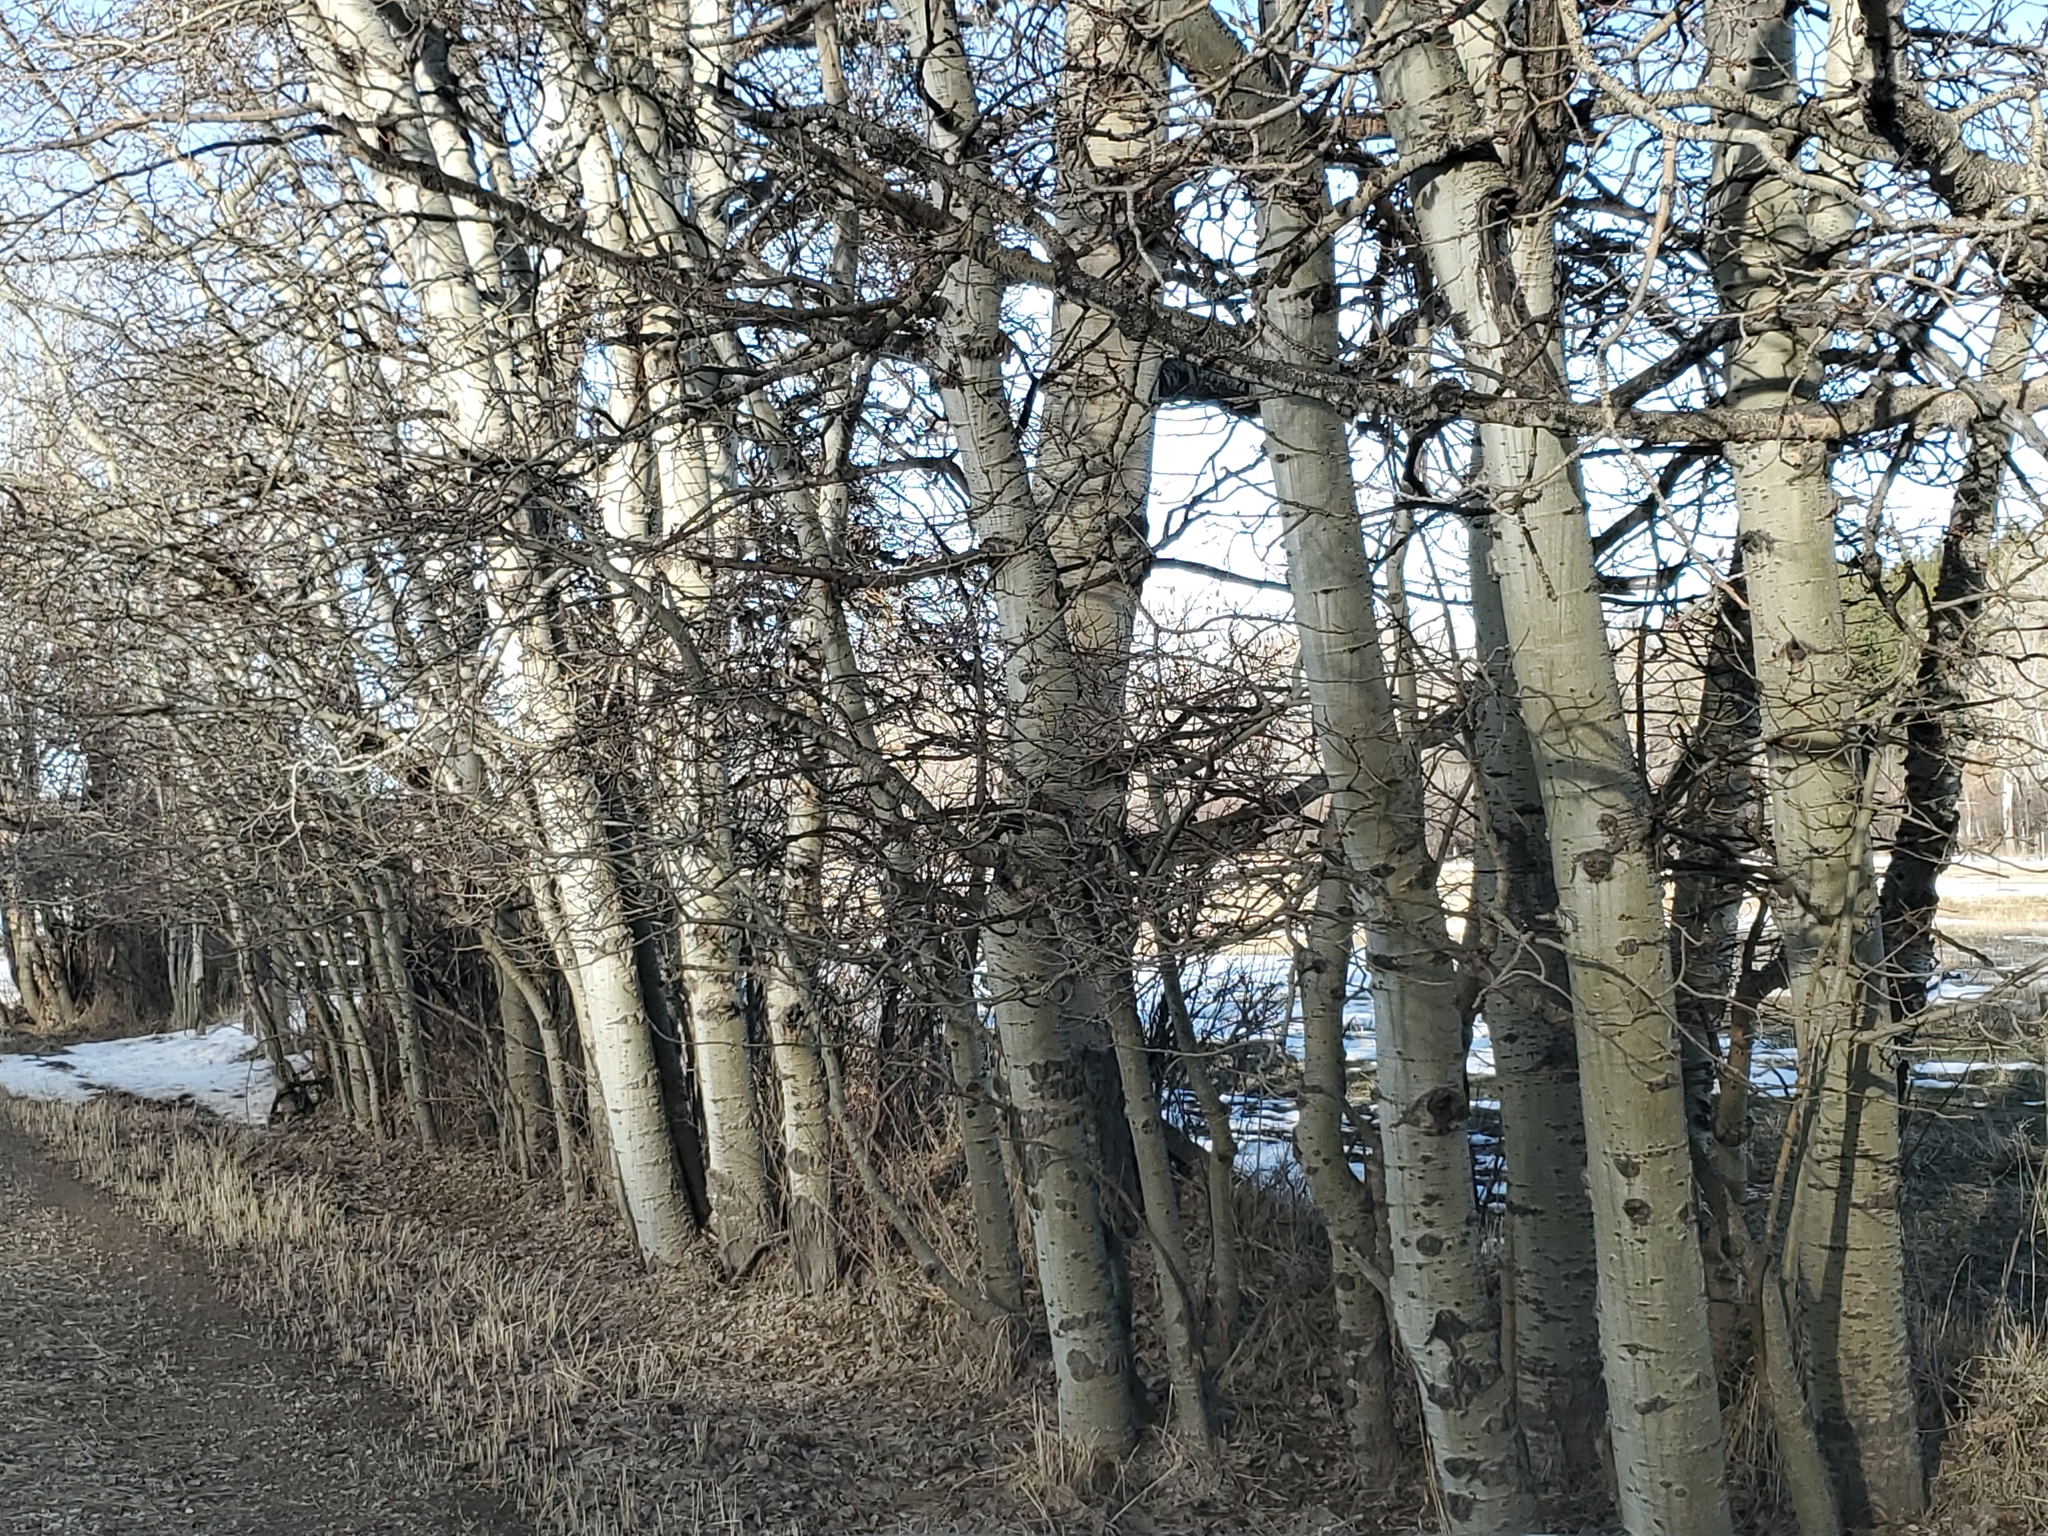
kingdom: Plantae
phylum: Tracheophyta
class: Magnoliopsida
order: Malpighiales
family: Salicaceae
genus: Populus
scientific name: Populus tremuloides
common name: Quaking aspen
